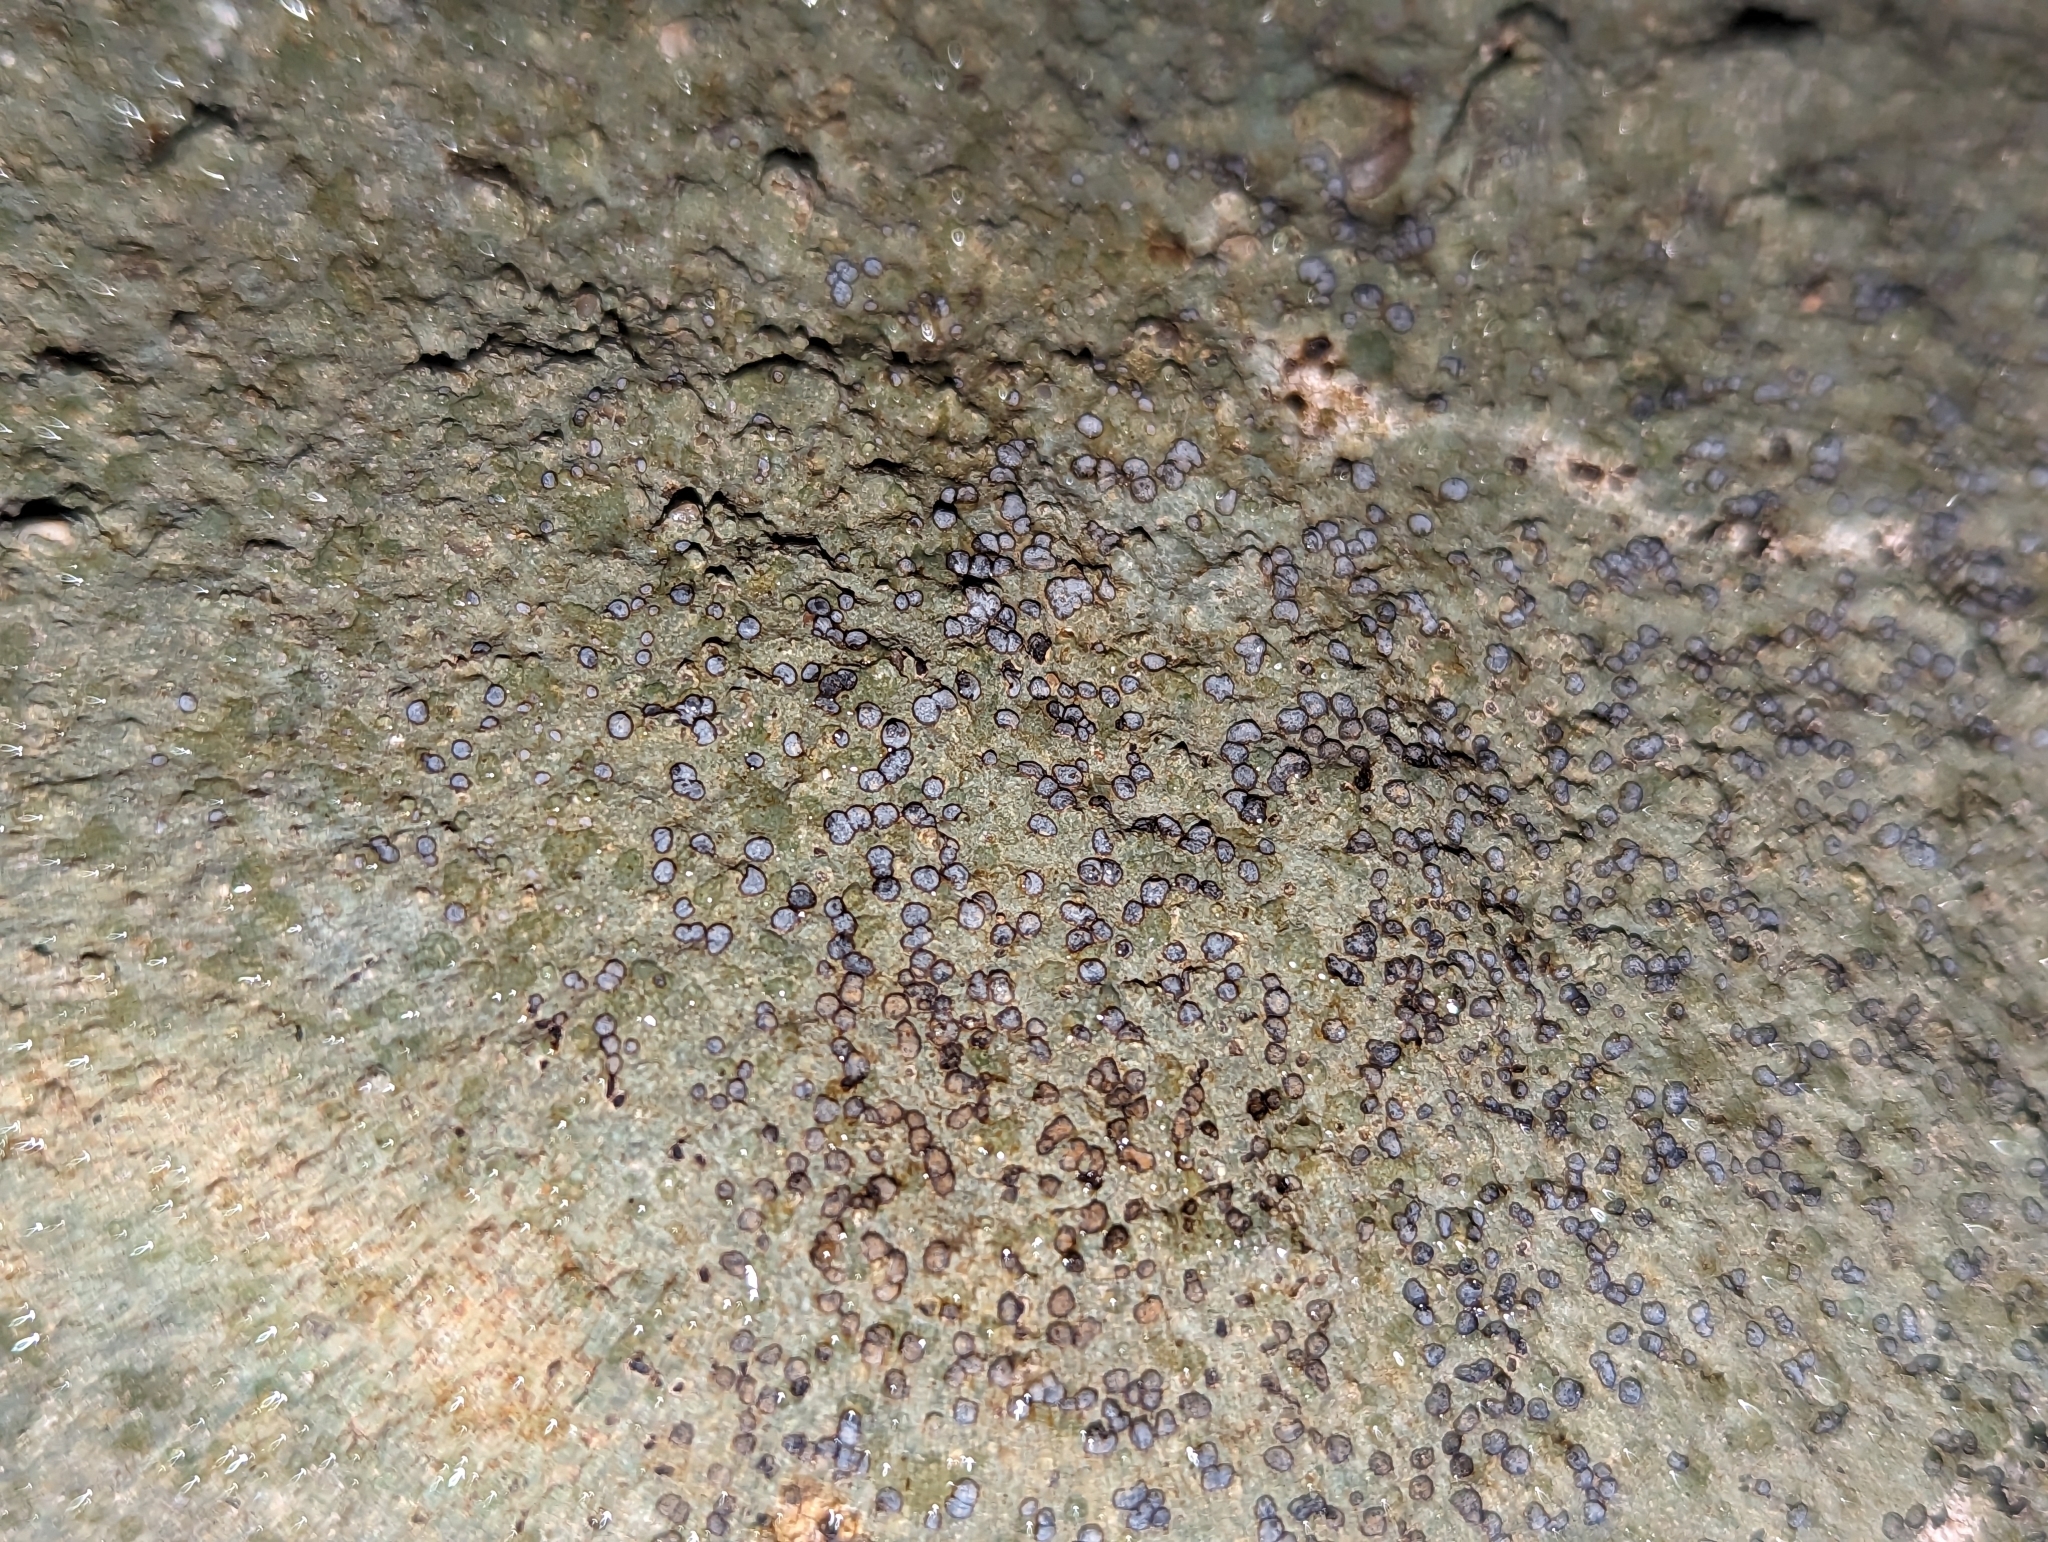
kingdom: Fungi
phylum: Ascomycota
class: Lecanoromycetes
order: Lecideales
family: Lecideaceae
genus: Porpidia
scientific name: Porpidia albocaerulescens
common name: Smokey-eyed boulder lichen
